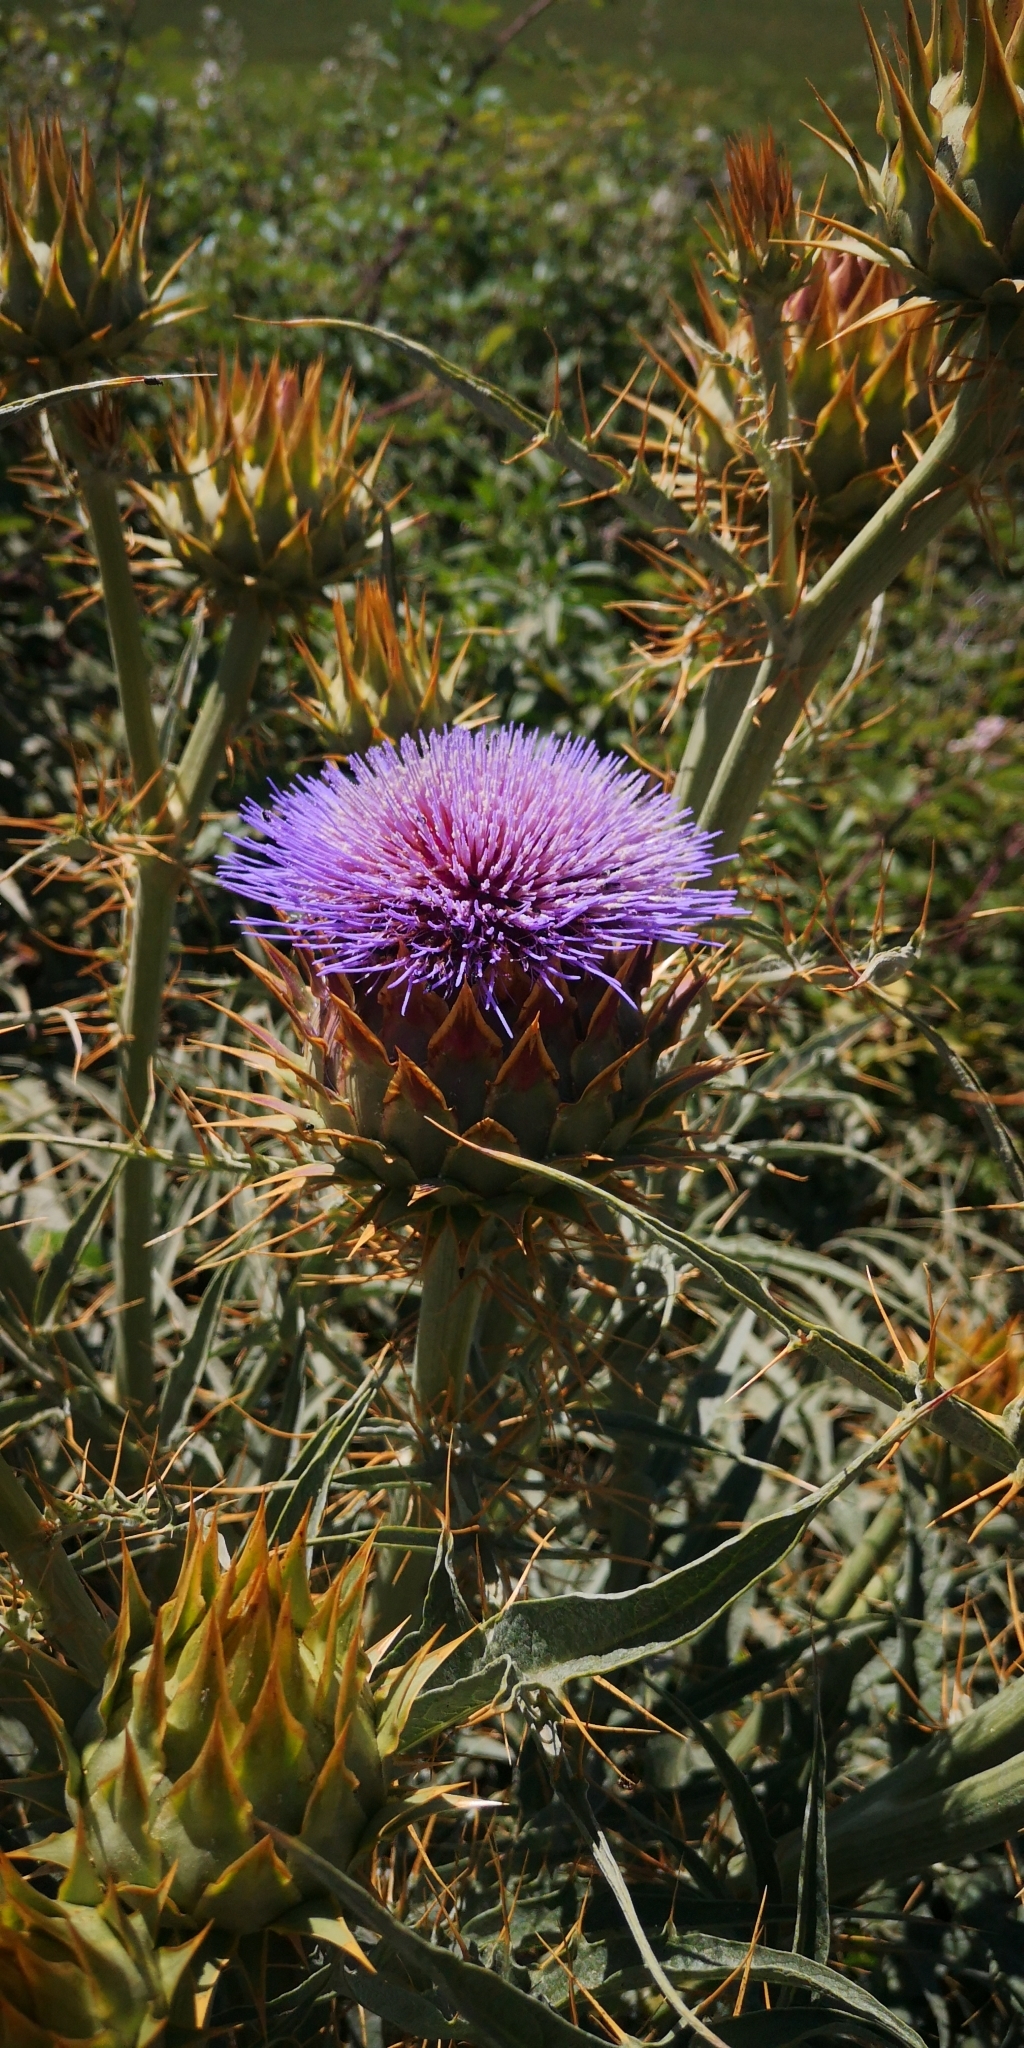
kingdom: Plantae
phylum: Tracheophyta
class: Magnoliopsida
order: Asterales
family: Asteraceae
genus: Cynara
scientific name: Cynara cardunculus
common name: Globe artichoke
